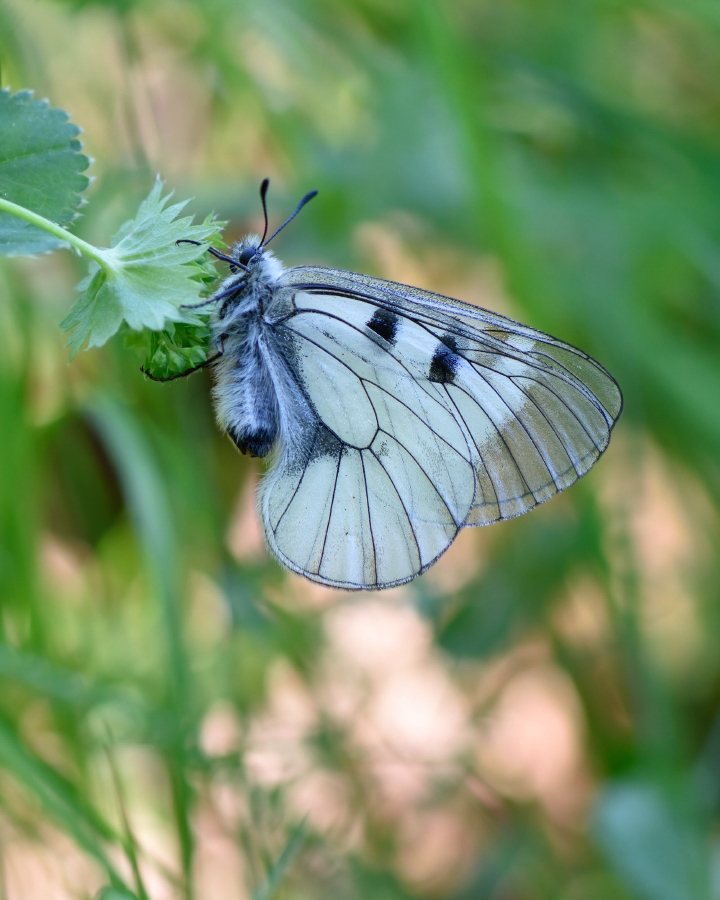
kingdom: Animalia
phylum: Arthropoda
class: Insecta
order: Lepidoptera
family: Papilionidae
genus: Parnassius
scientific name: Parnassius mnemosyne
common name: Clouded apollo
